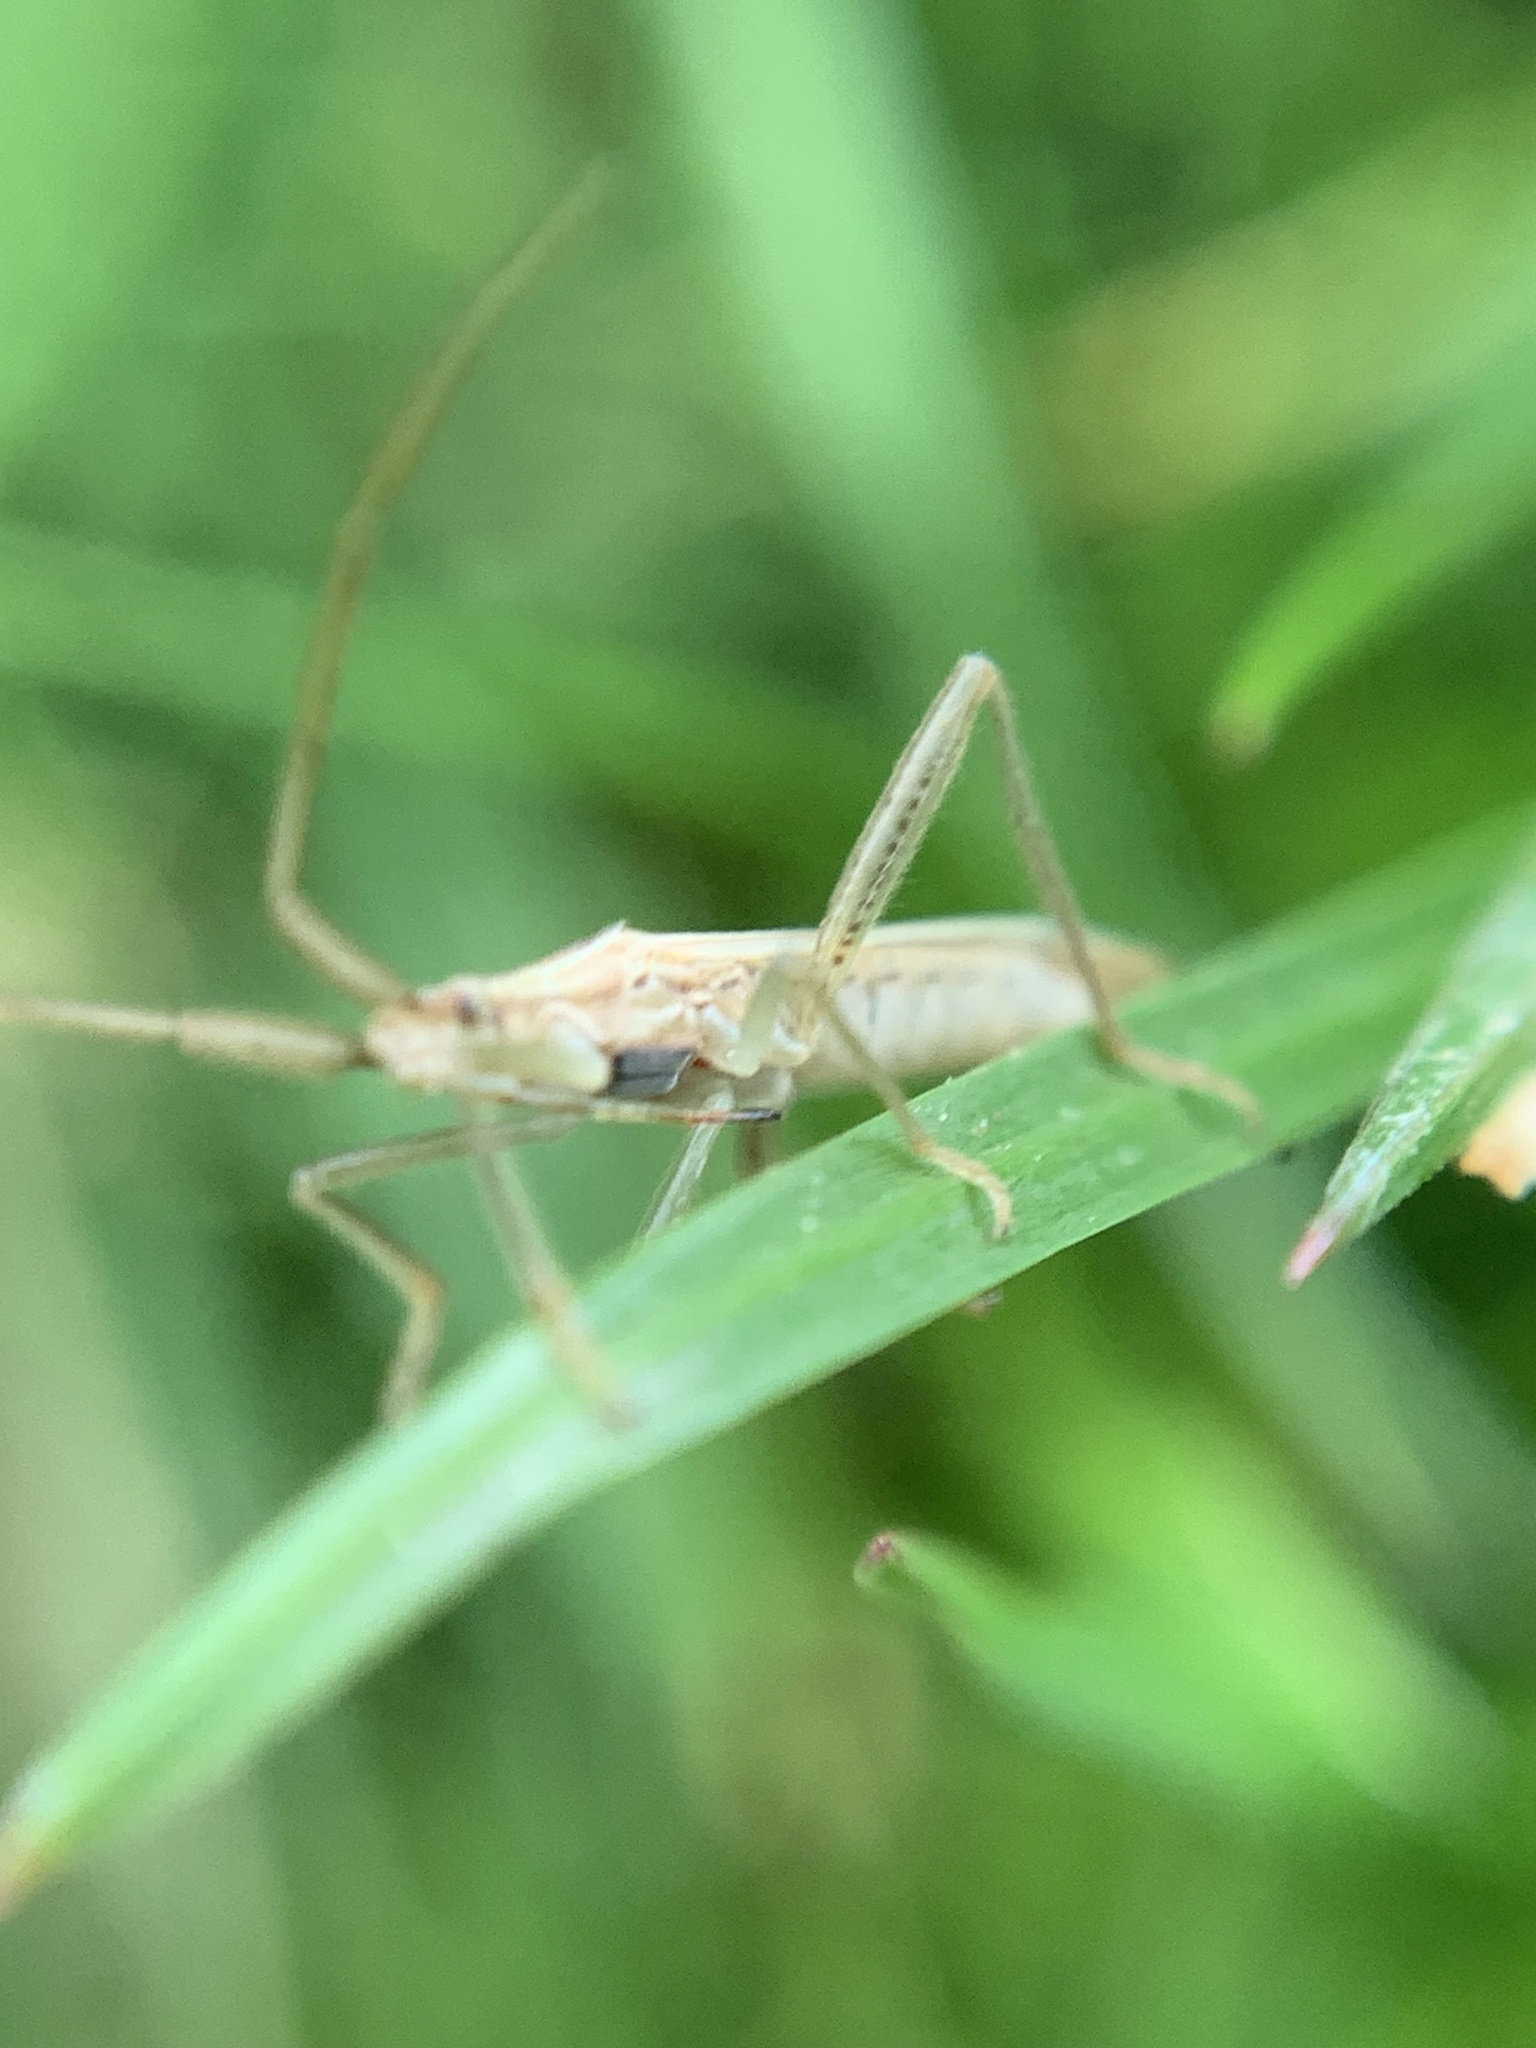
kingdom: Animalia
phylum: Arthropoda
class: Insecta
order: Hemiptera
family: Miridae
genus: Stenodema
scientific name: Stenodema laevigata
